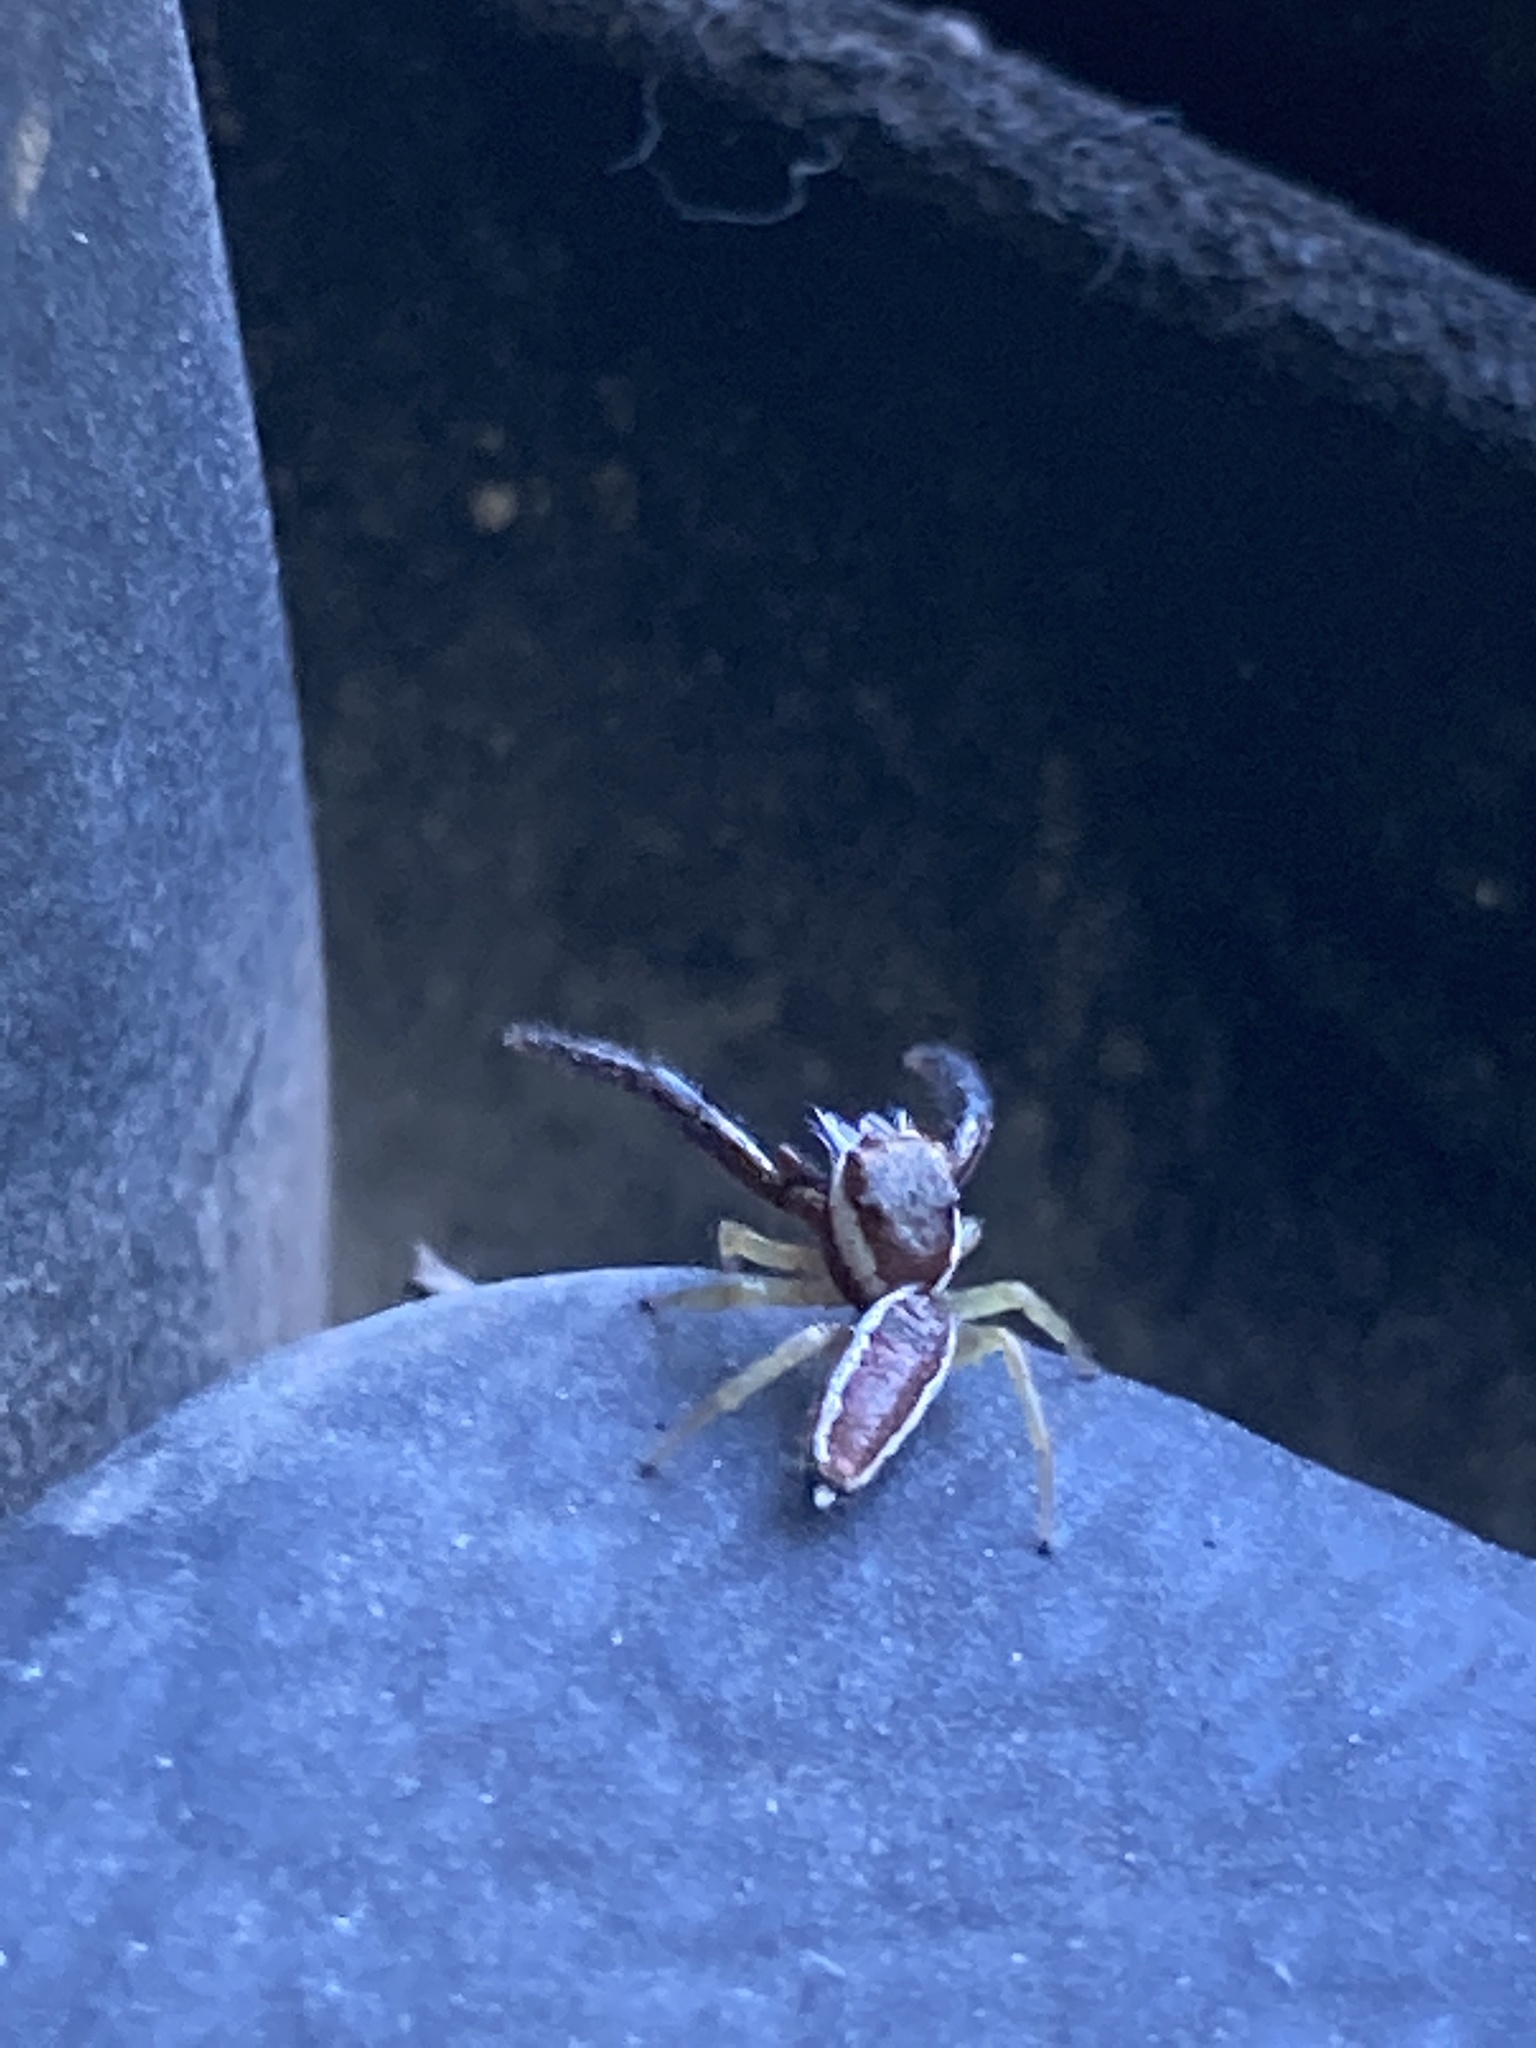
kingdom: Animalia
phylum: Arthropoda
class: Arachnida
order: Araneae
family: Salticidae
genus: Hentzia
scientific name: Hentzia palmarum
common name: Common hentz jumping spider
